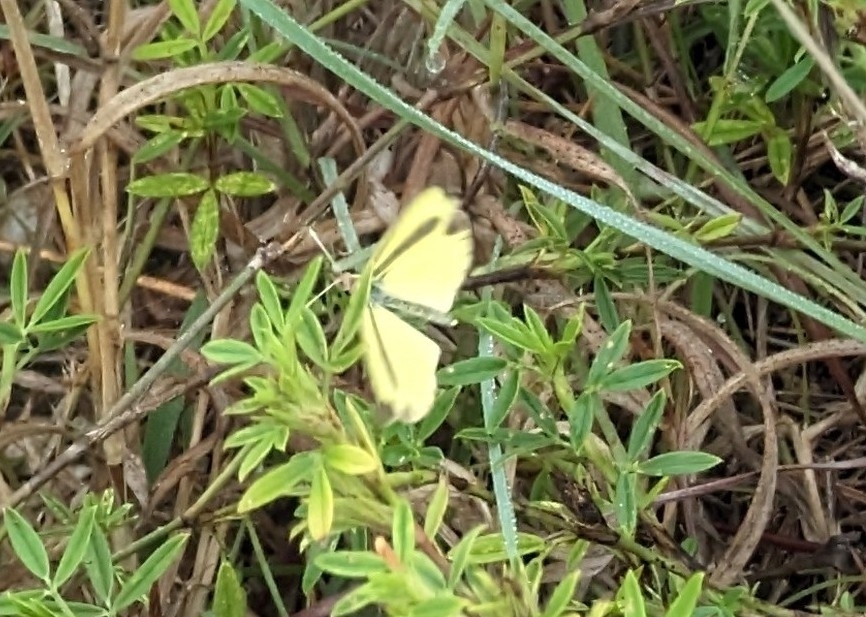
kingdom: Animalia
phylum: Arthropoda
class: Insecta
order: Lepidoptera
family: Pieridae
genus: Eurema
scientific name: Eurema daira
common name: Barred sulphur
